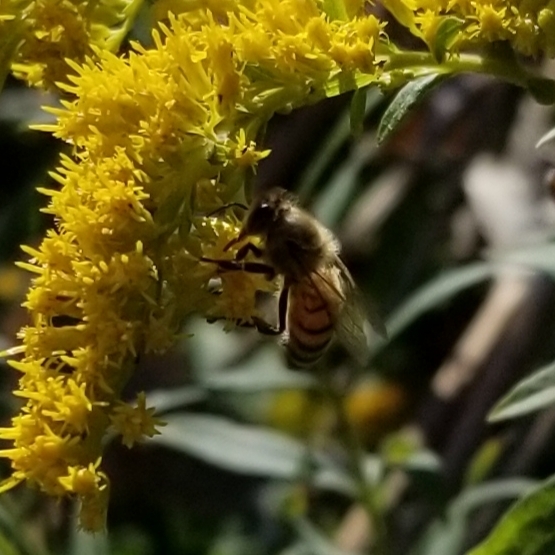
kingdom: Animalia
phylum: Arthropoda
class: Insecta
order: Hymenoptera
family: Apidae
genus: Apis
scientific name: Apis mellifera
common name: Honey bee
